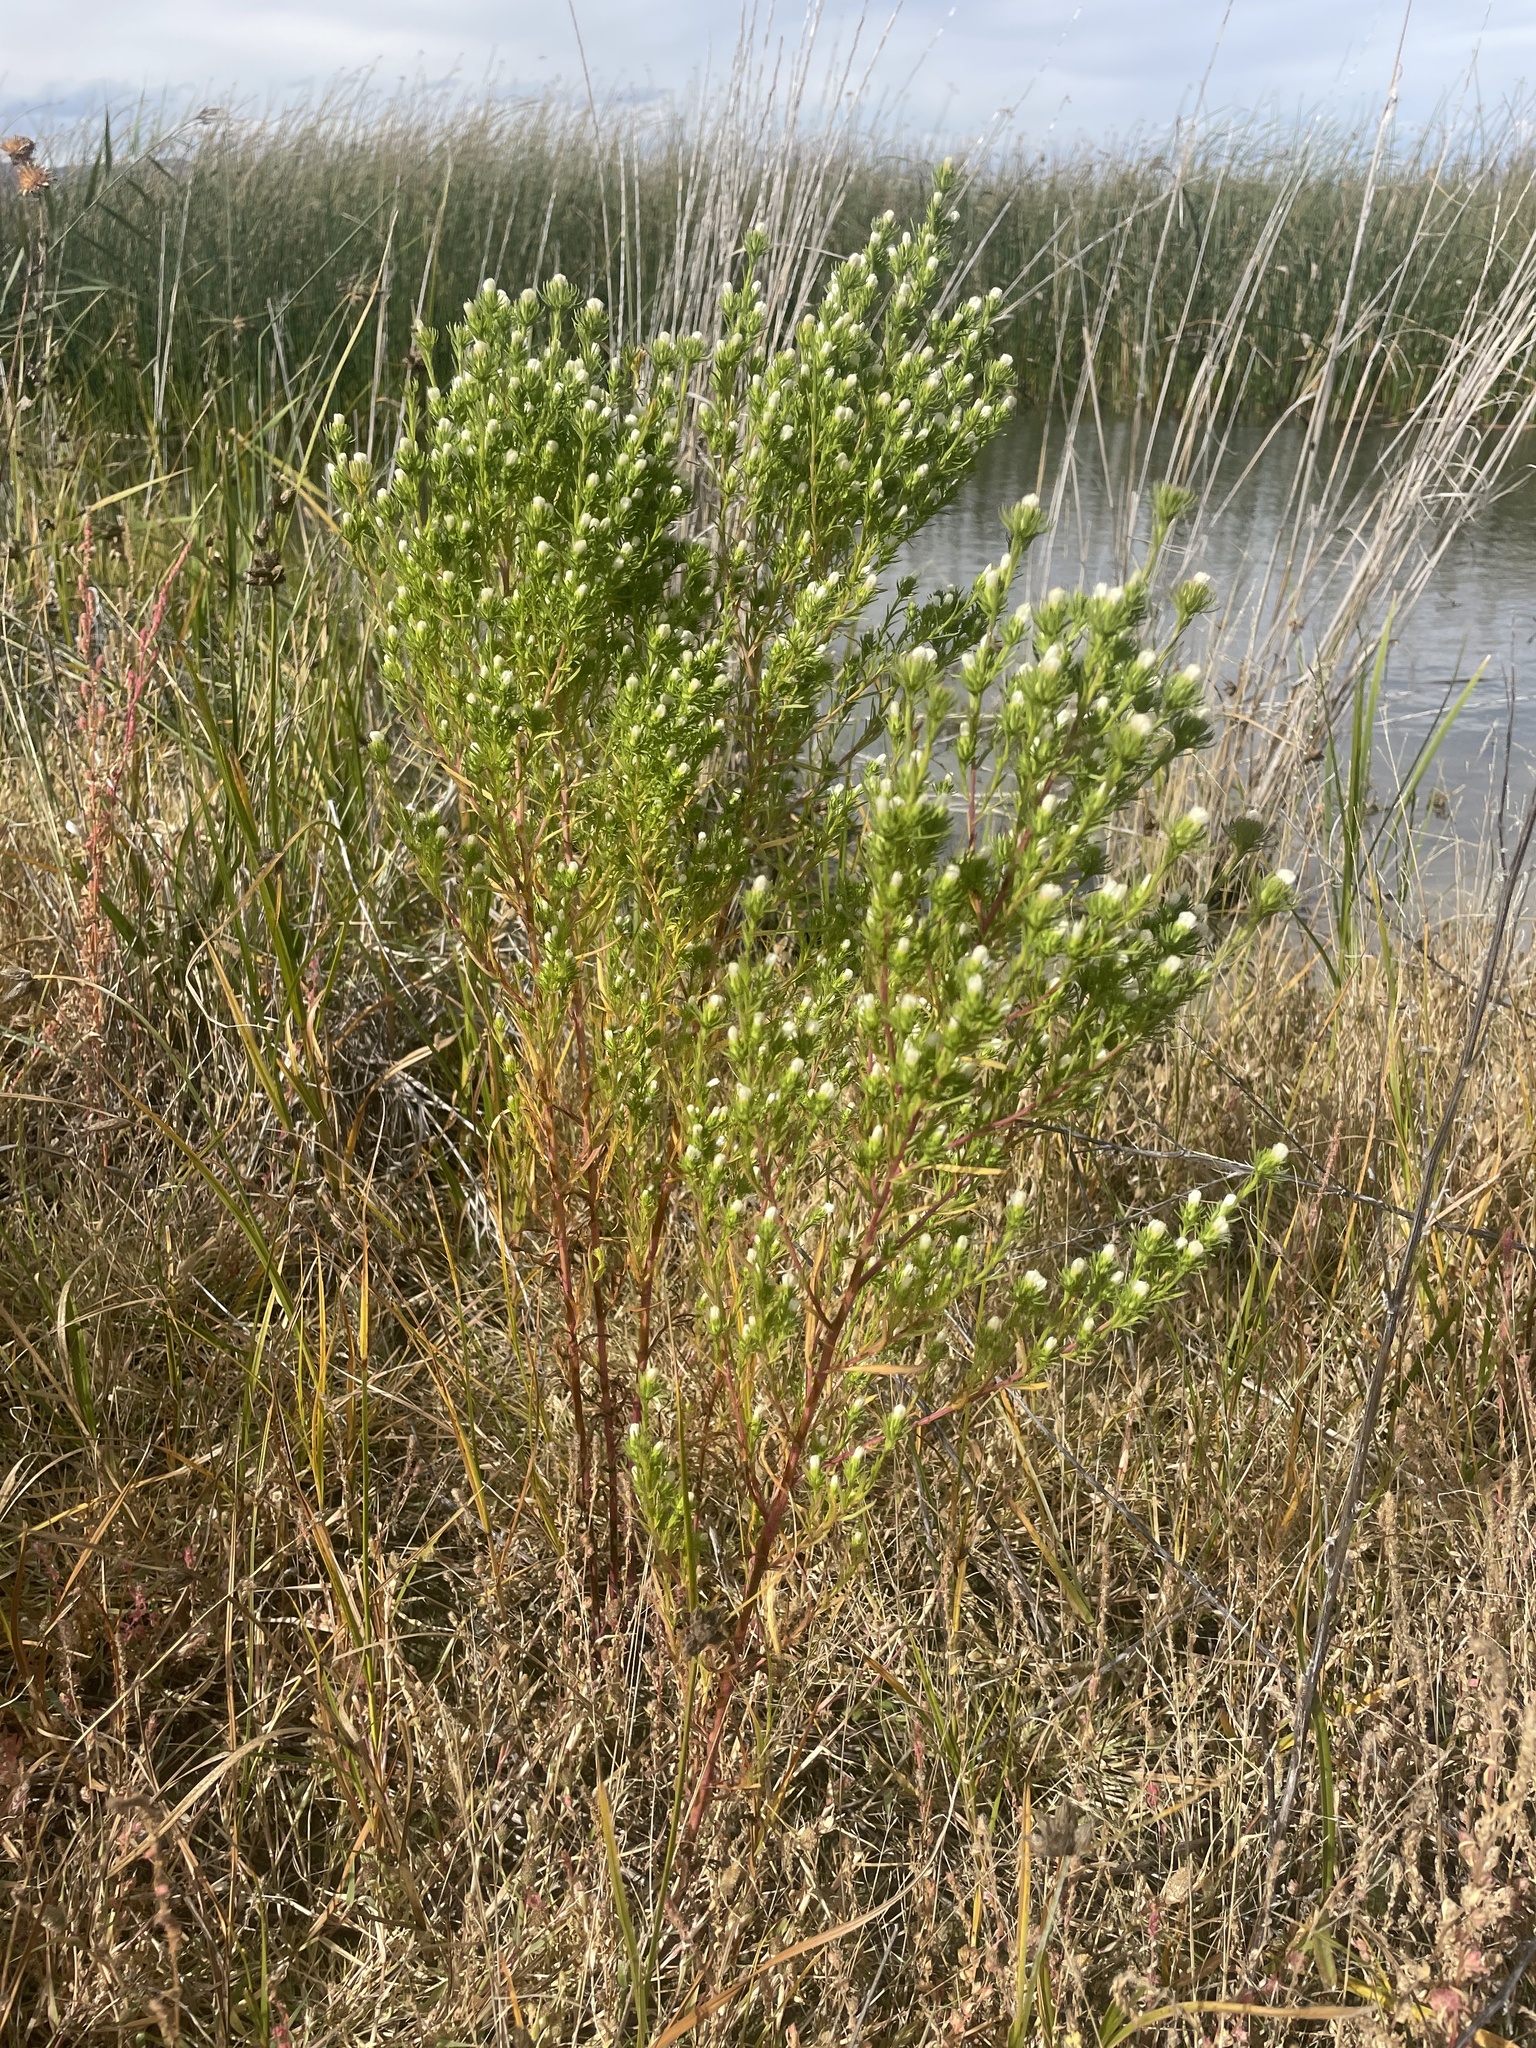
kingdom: Plantae
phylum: Tracheophyta
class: Magnoliopsida
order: Asterales
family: Asteraceae
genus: Symphyotrichum
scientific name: Symphyotrichum ciliatum
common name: Rayless annual aster
